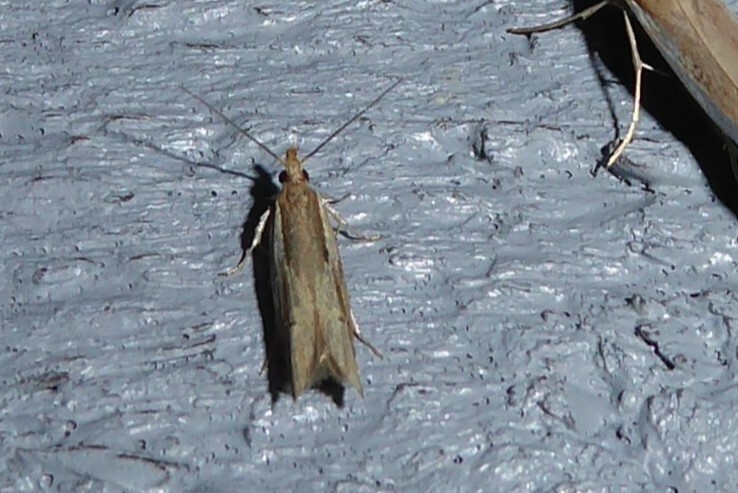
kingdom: Animalia
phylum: Arthropoda
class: Insecta
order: Lepidoptera
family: Depressariidae
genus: Eutorna
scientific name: Eutorna symmorpha
